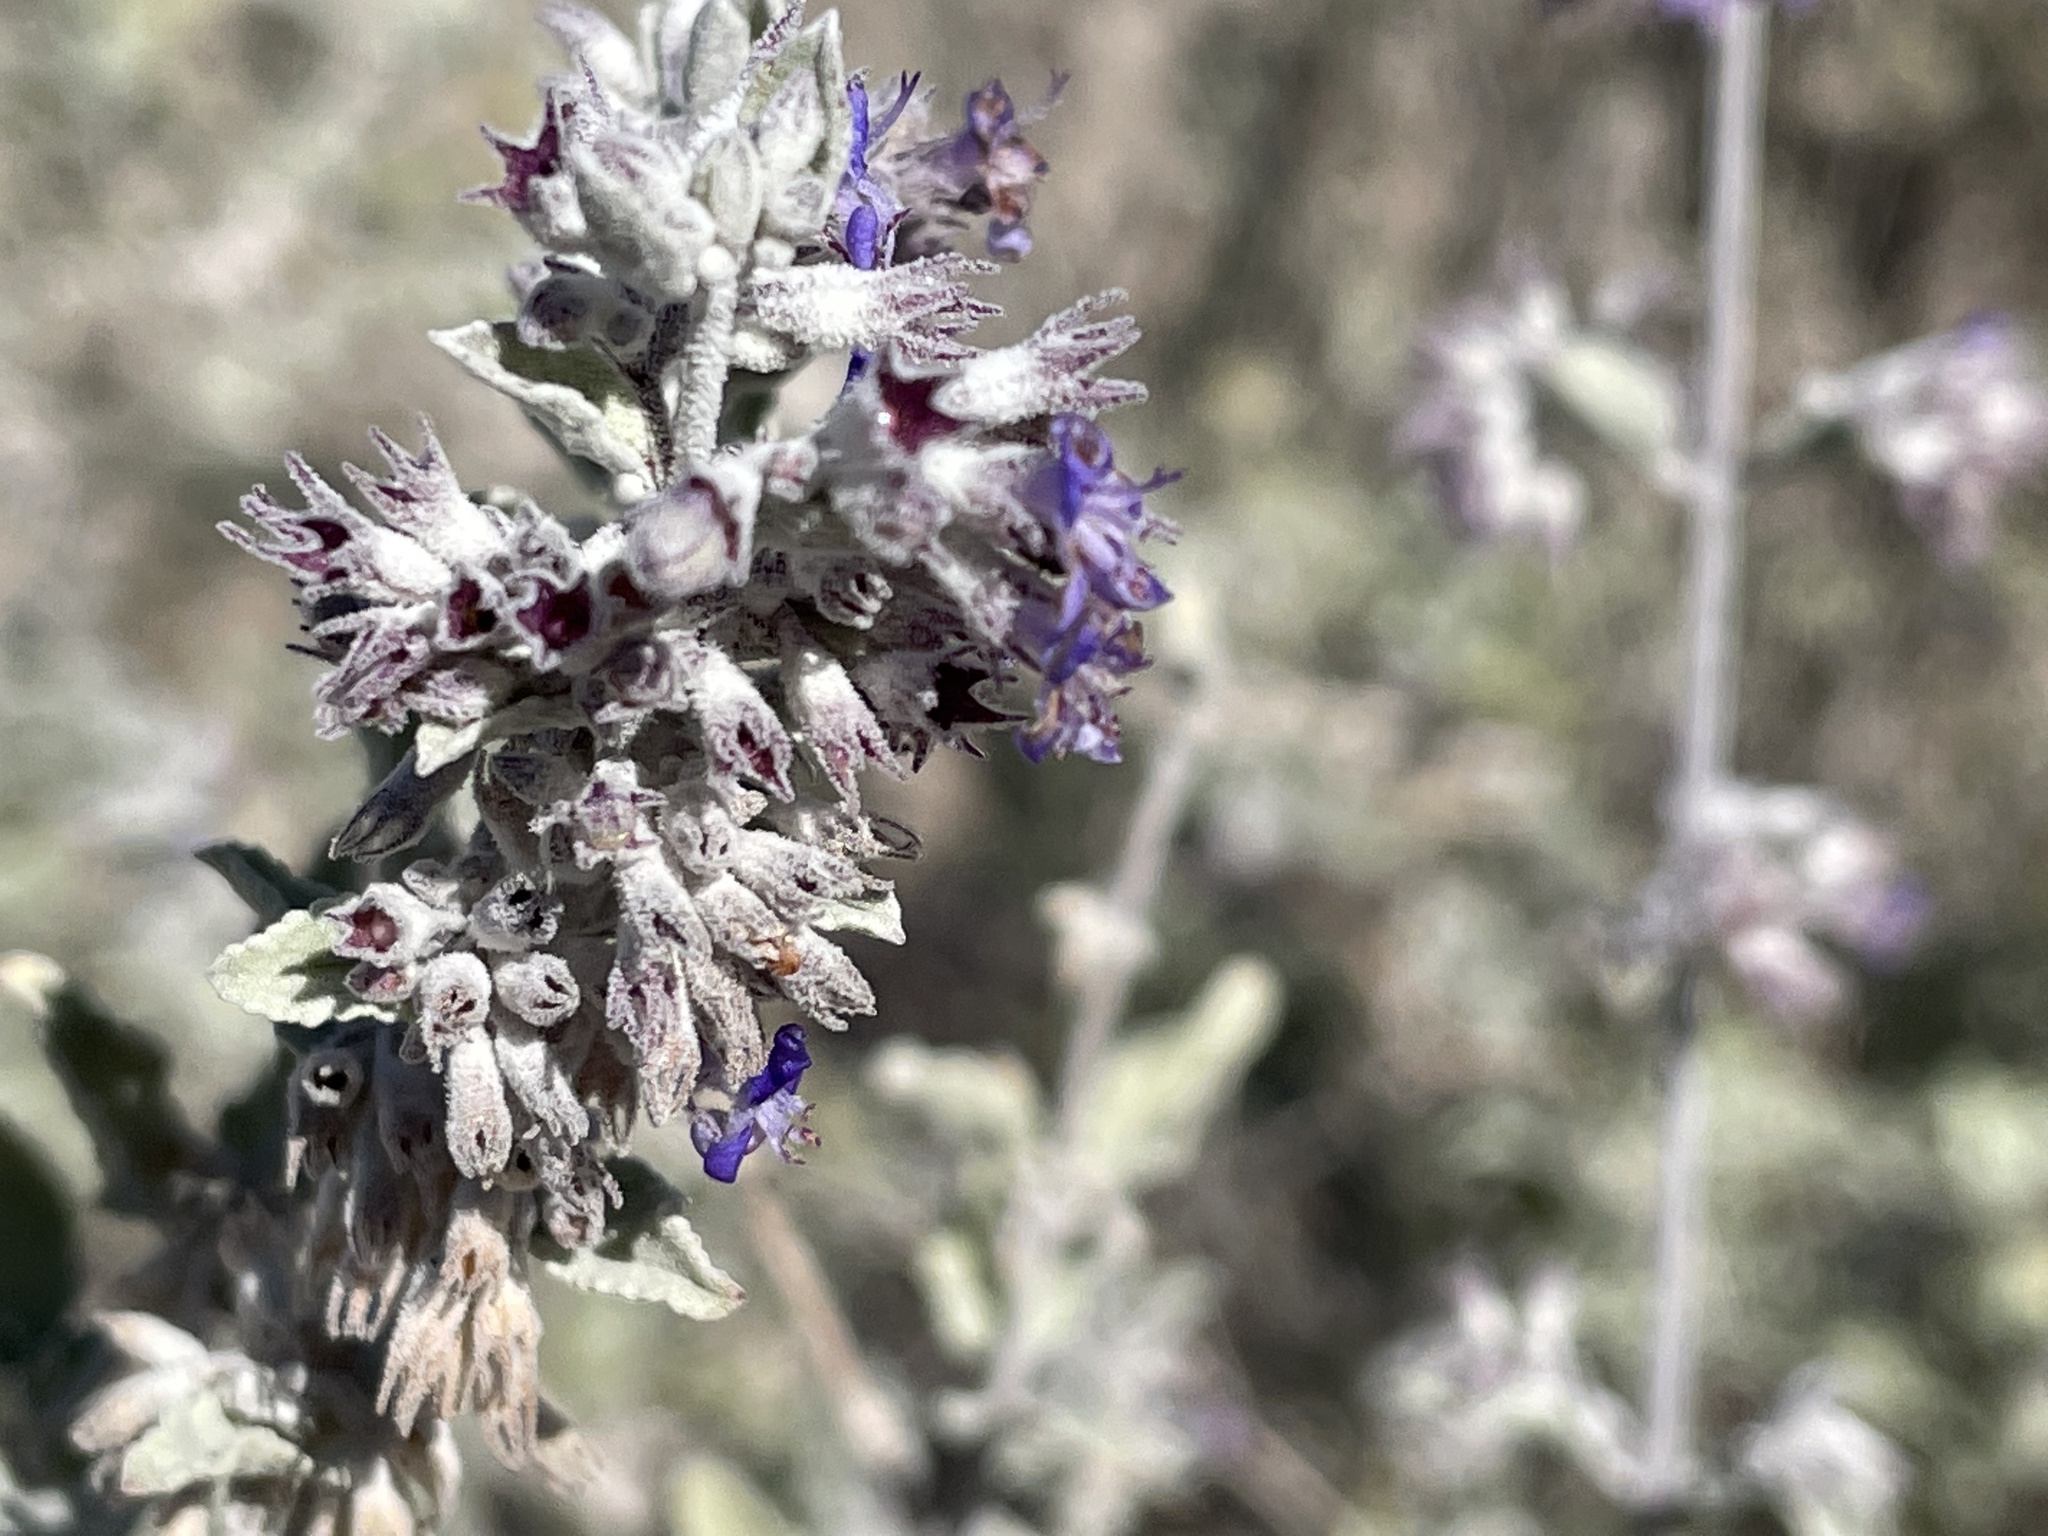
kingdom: Plantae
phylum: Tracheophyta
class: Magnoliopsida
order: Lamiales
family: Lamiaceae
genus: Condea
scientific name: Condea emoryi
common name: Chia
